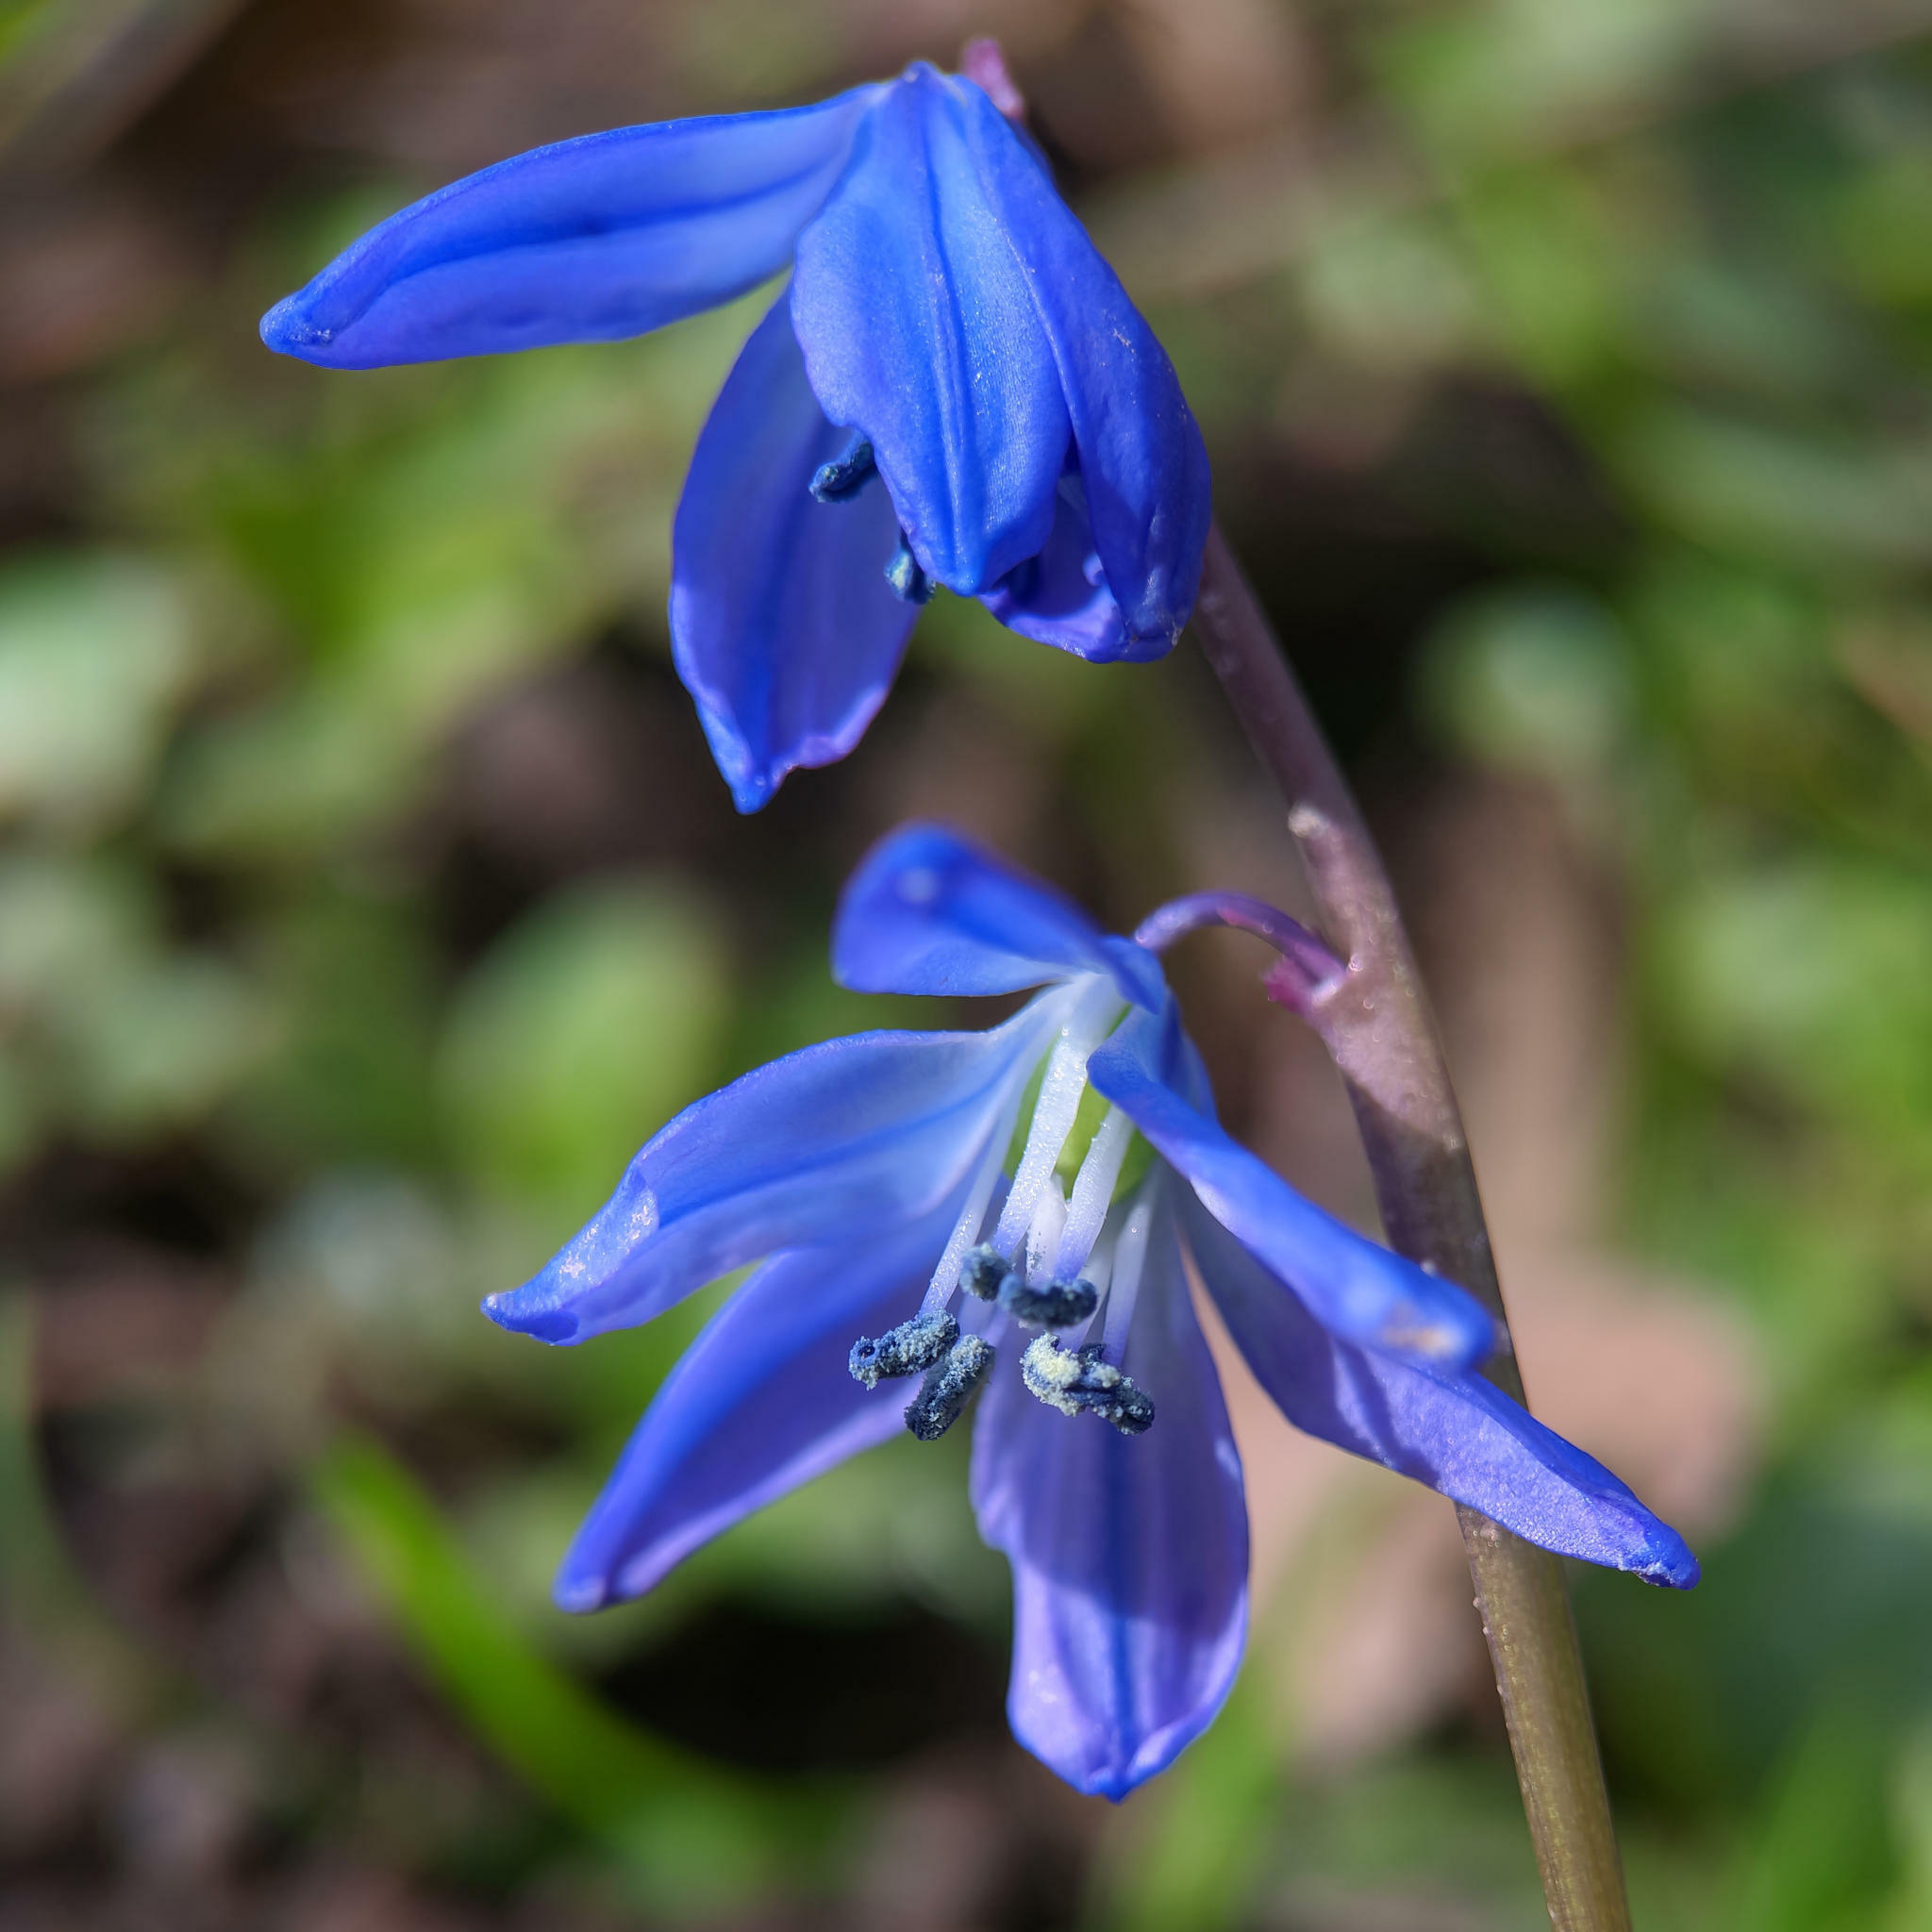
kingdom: Plantae
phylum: Tracheophyta
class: Liliopsida
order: Asparagales
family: Asparagaceae
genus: Scilla
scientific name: Scilla siberica
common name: Siberian squill
